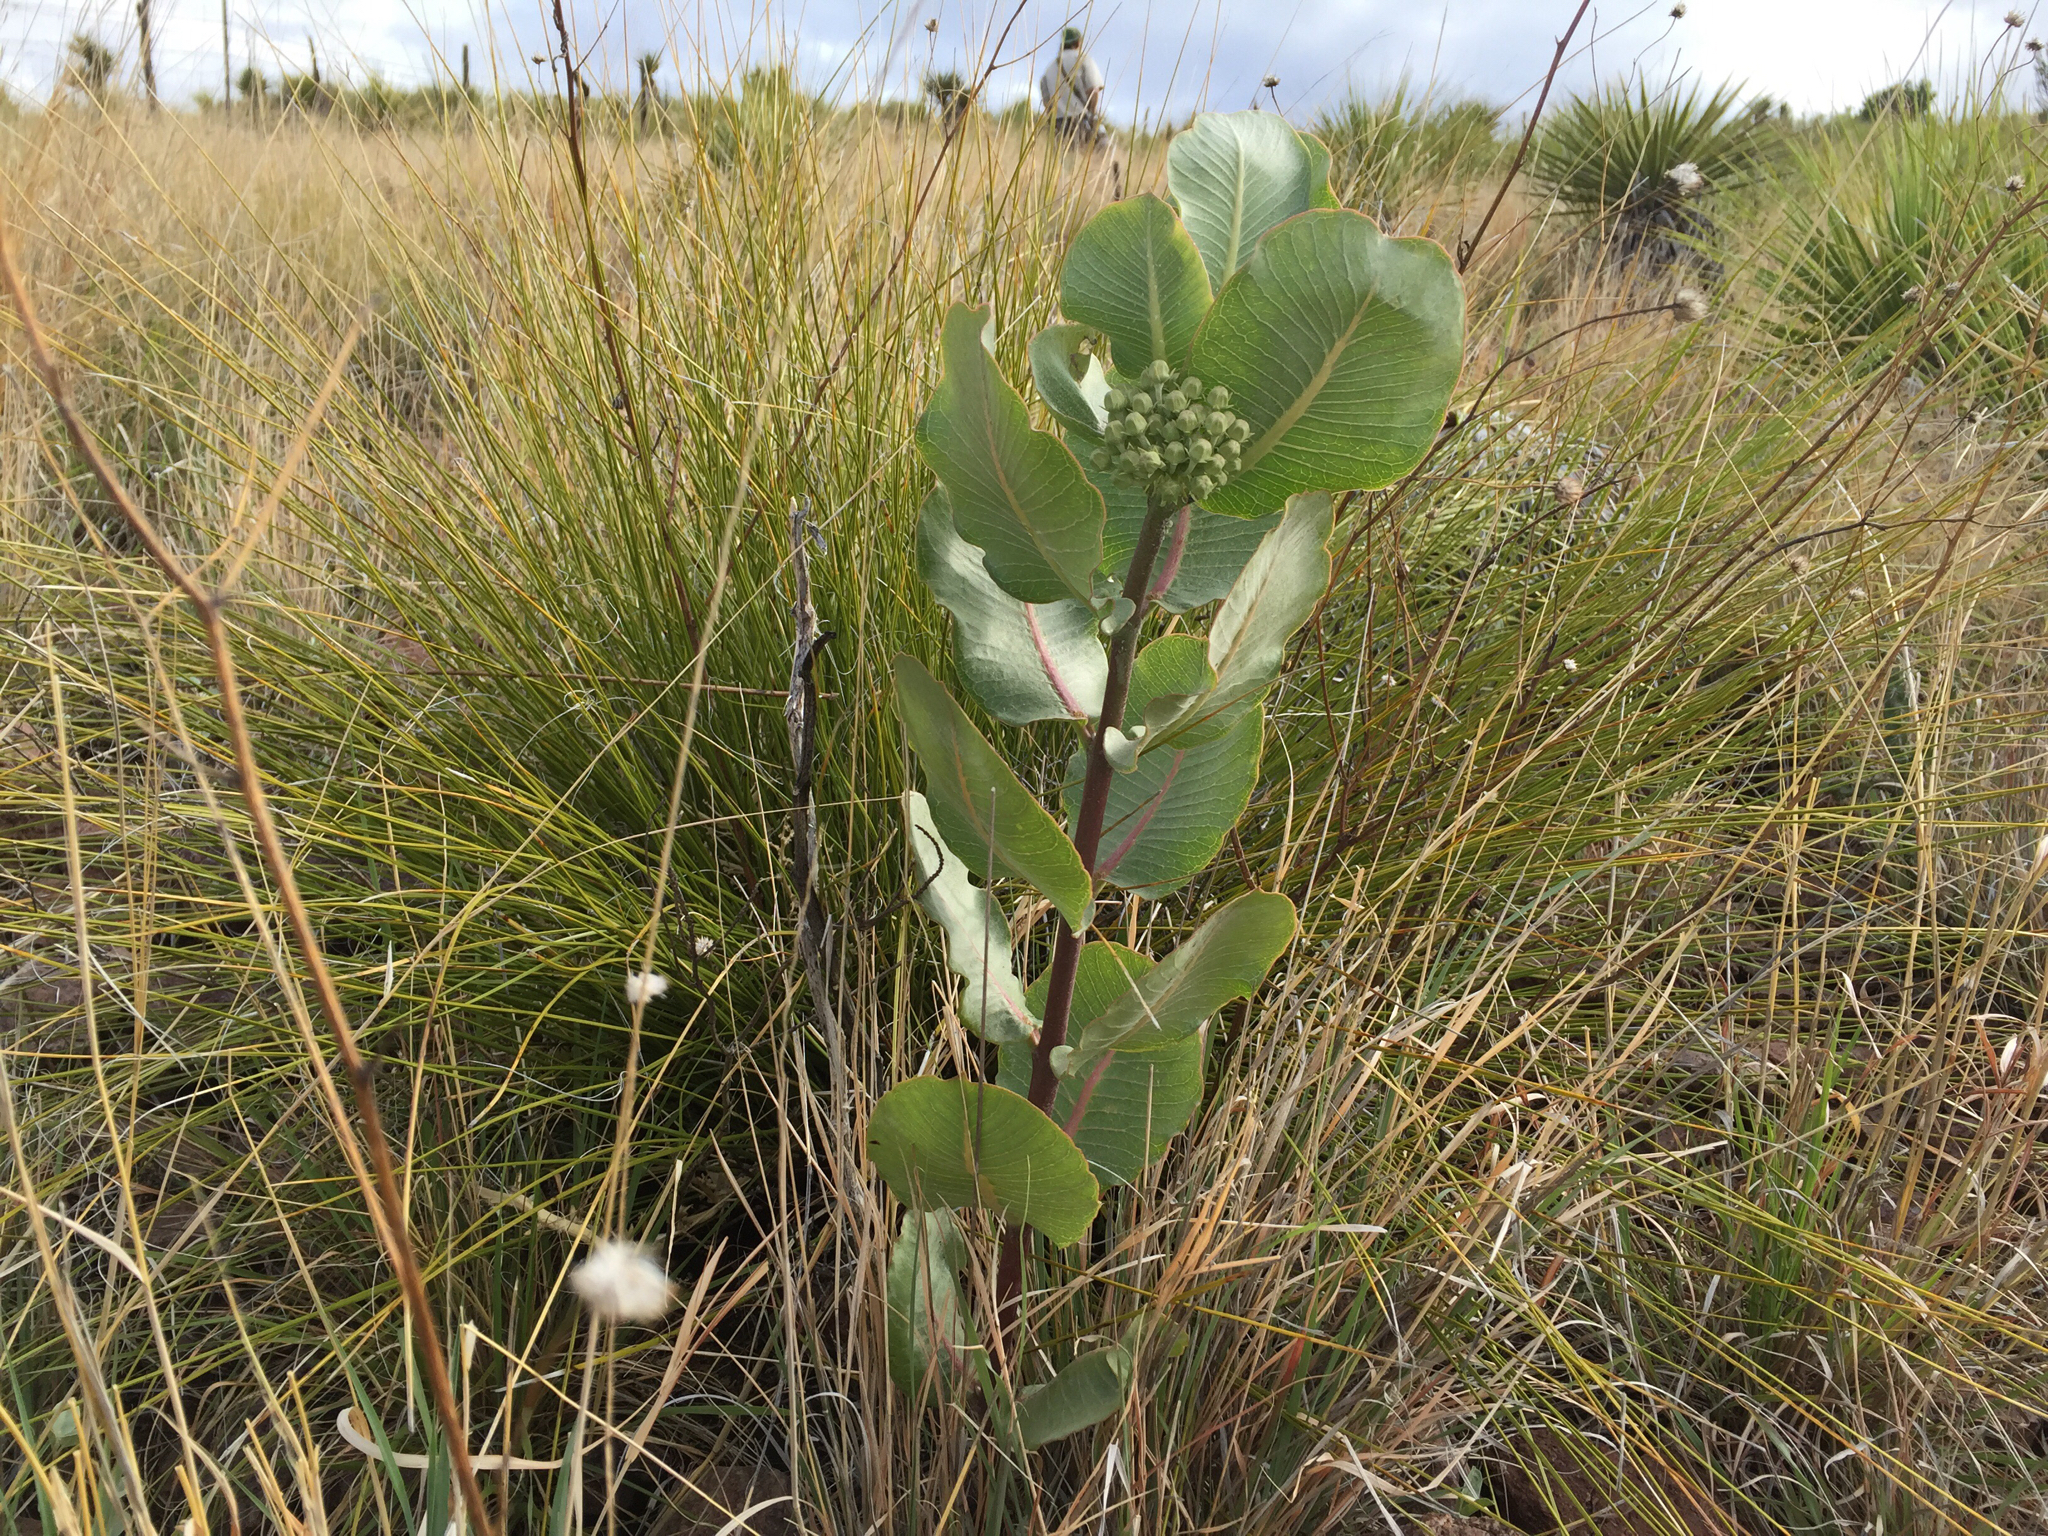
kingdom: Plantae
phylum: Tracheophyta
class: Magnoliopsida
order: Gentianales
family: Apocynaceae
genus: Asclepias
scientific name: Asclepias latifolia
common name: Broadleaf milkweed
